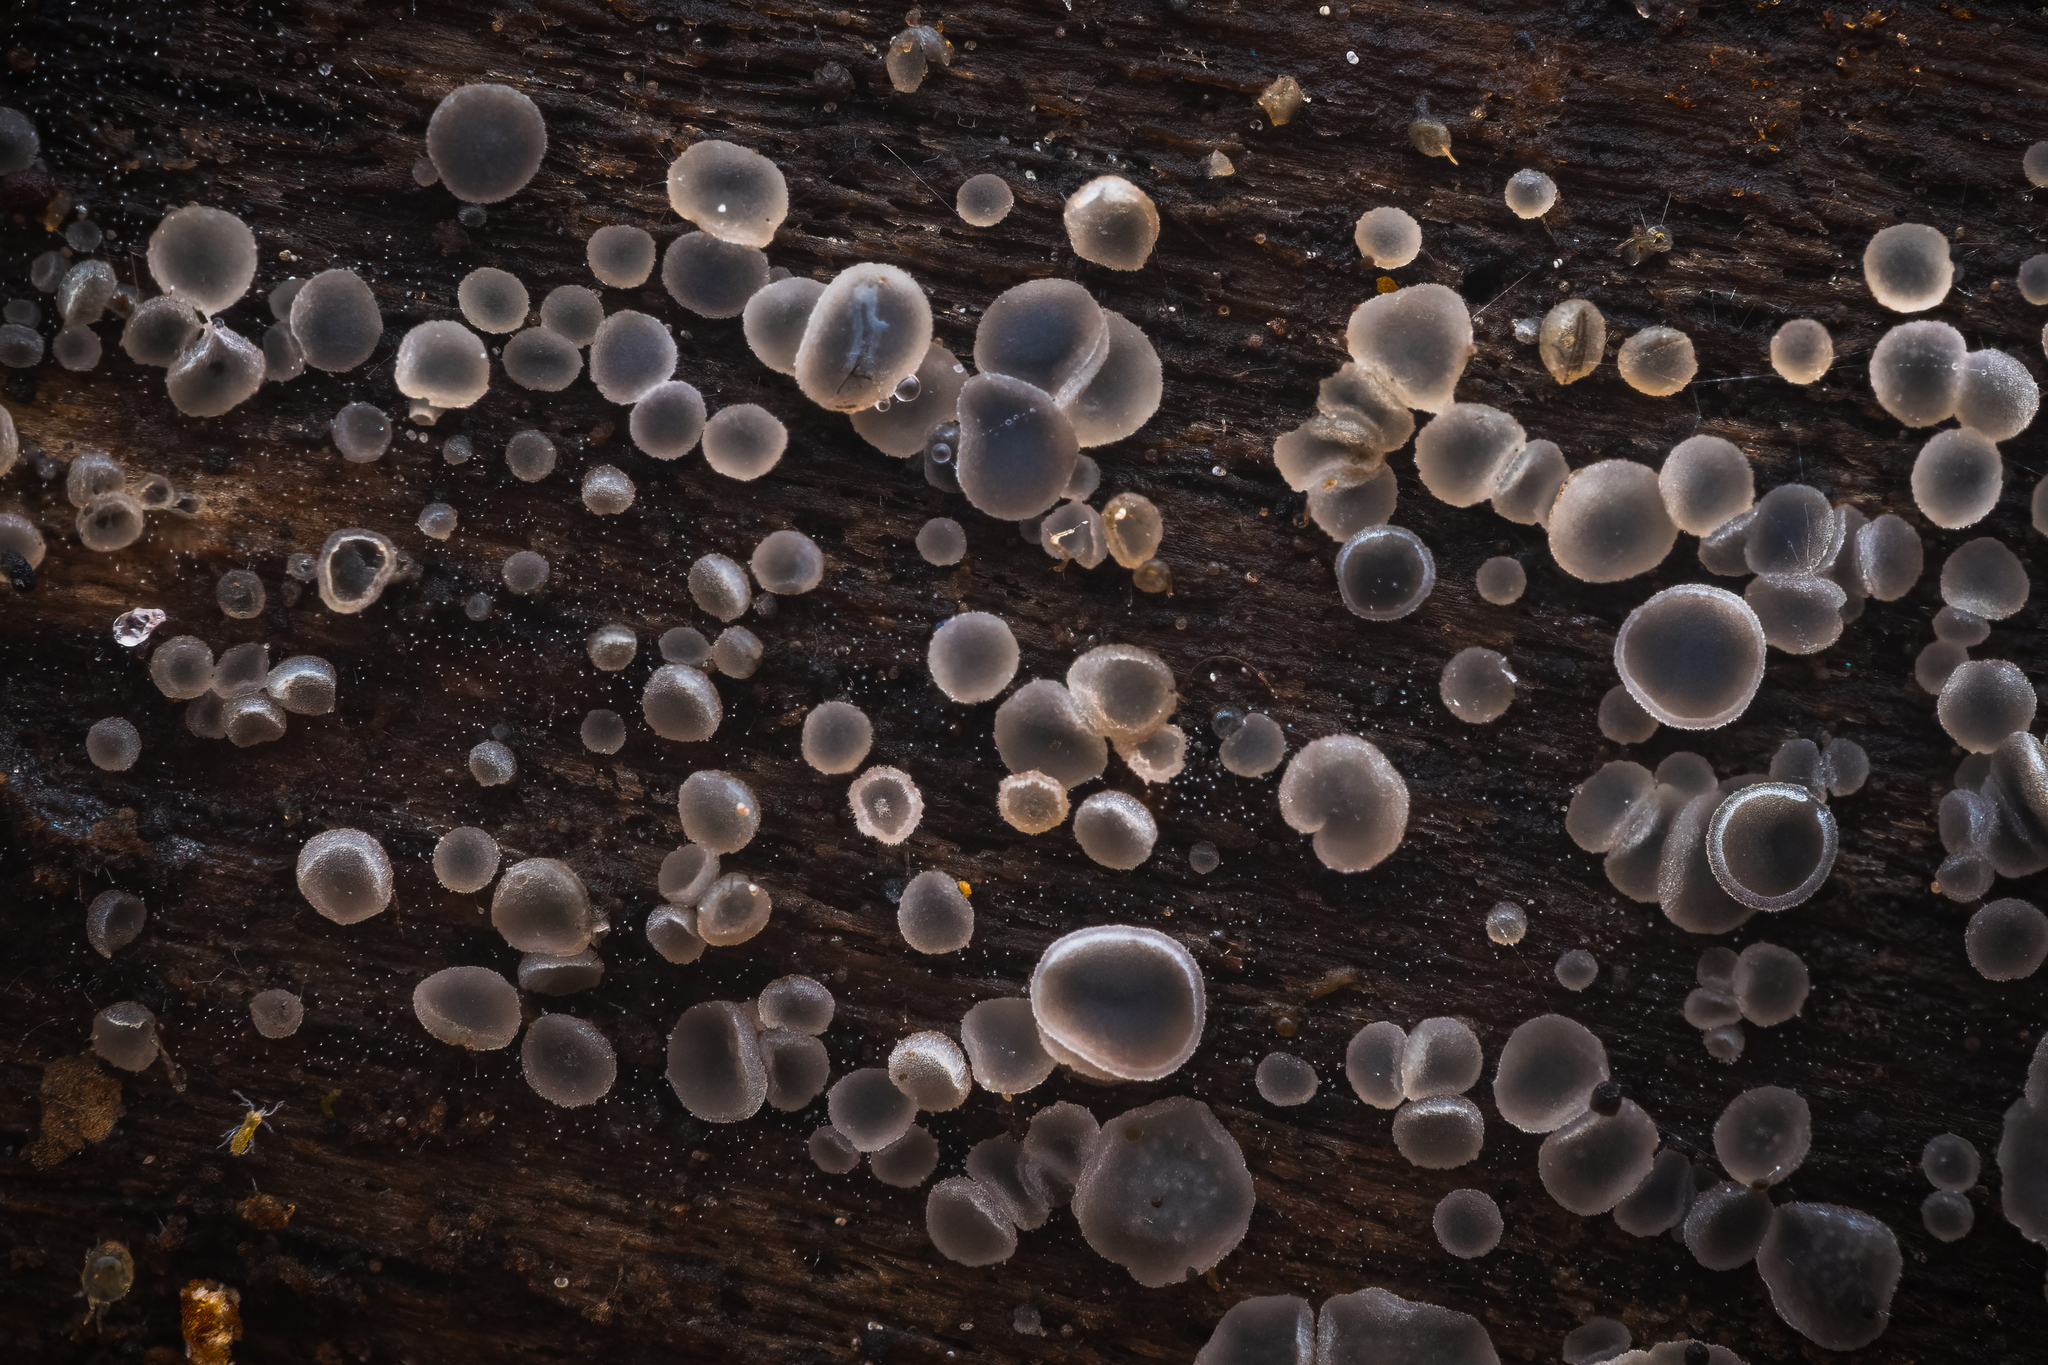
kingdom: Fungi
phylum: Ascomycota
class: Leotiomycetes
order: Helotiales
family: Mollisiaceae
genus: Mollisia
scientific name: Mollisia cinerea
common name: Common grey disco
